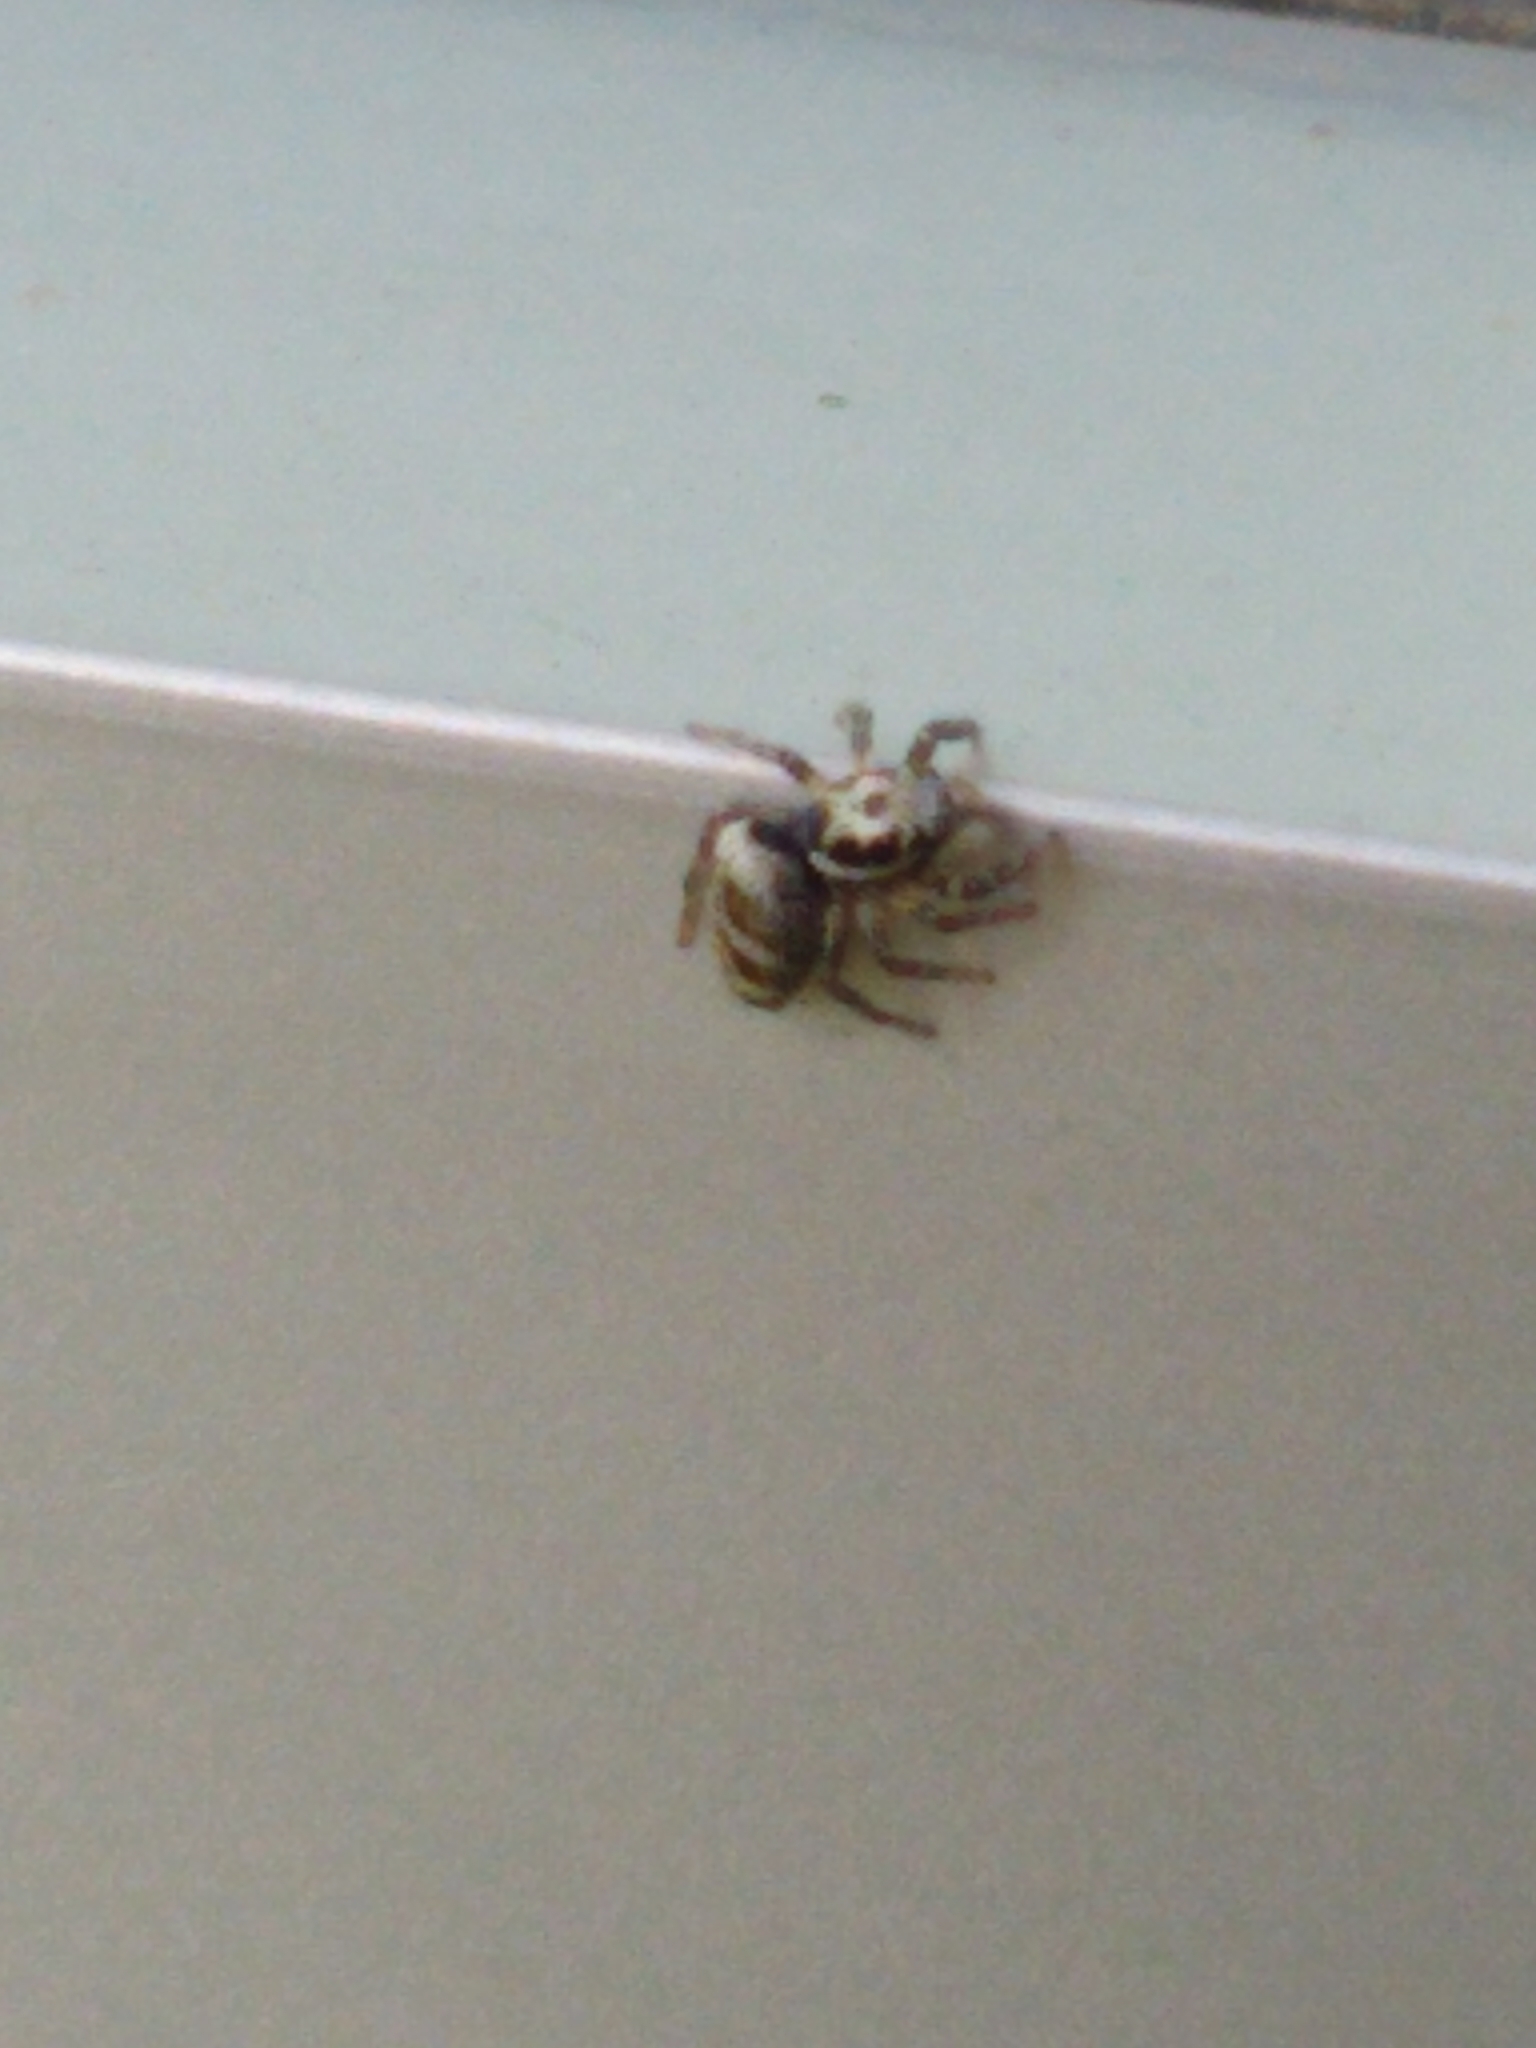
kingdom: Animalia
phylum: Arthropoda
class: Arachnida
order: Araneae
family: Salticidae
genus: Salticus
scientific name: Salticus scenicus
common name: Zebra jumper
